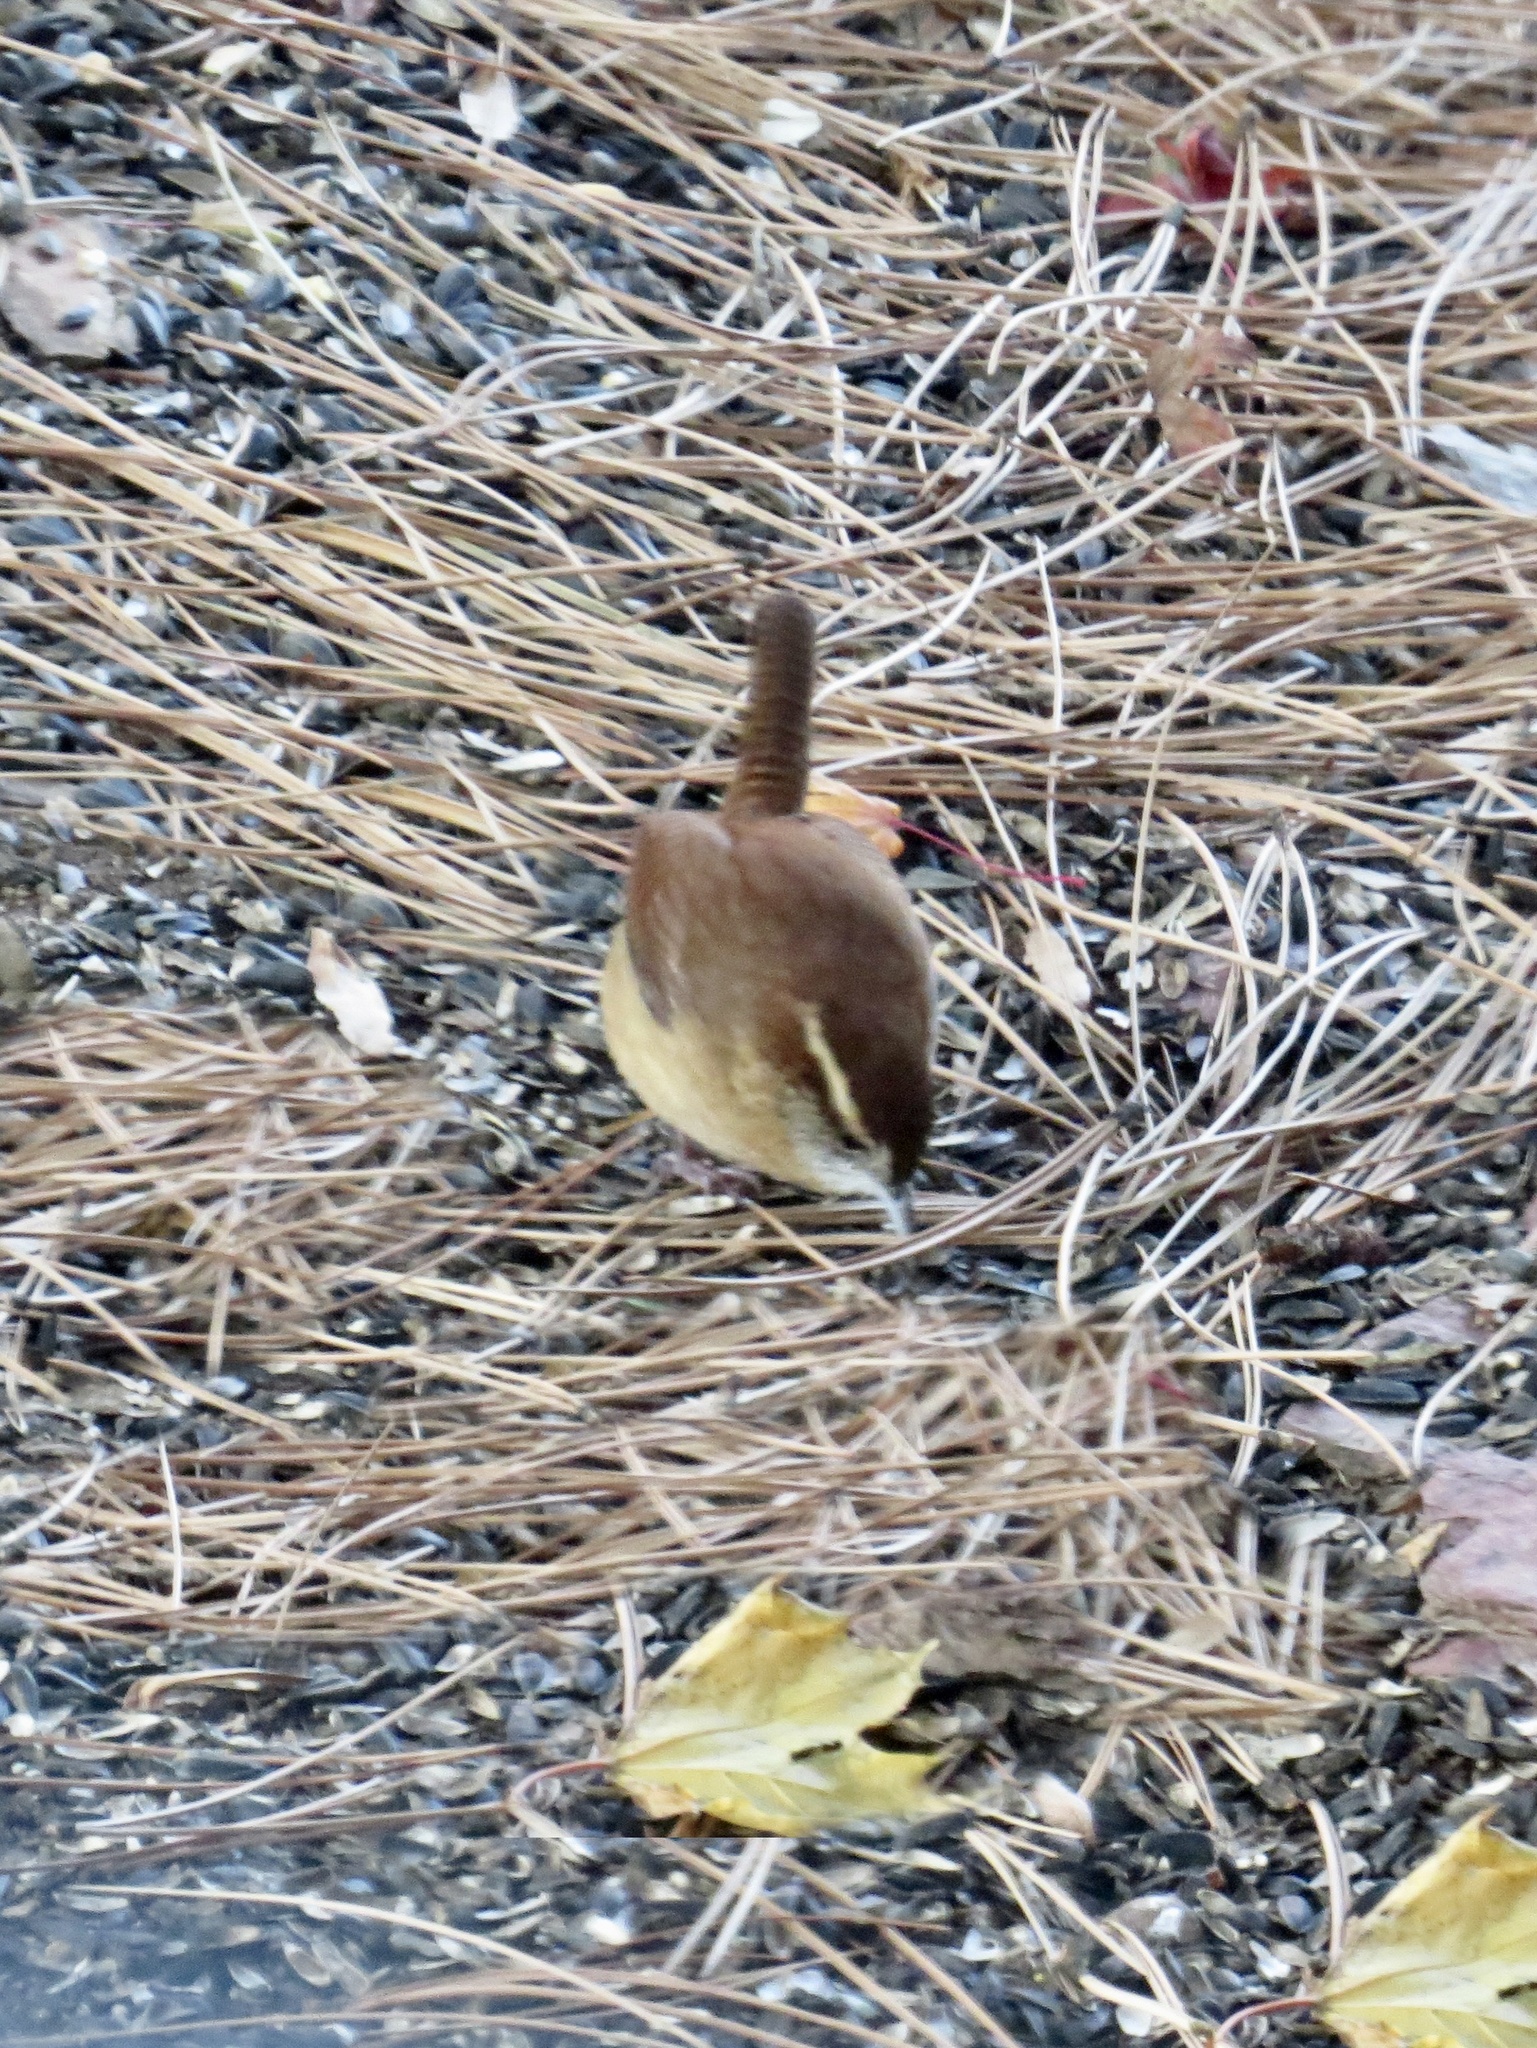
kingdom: Animalia
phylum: Chordata
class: Aves
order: Passeriformes
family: Troglodytidae
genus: Thryothorus
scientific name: Thryothorus ludovicianus
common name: Carolina wren
